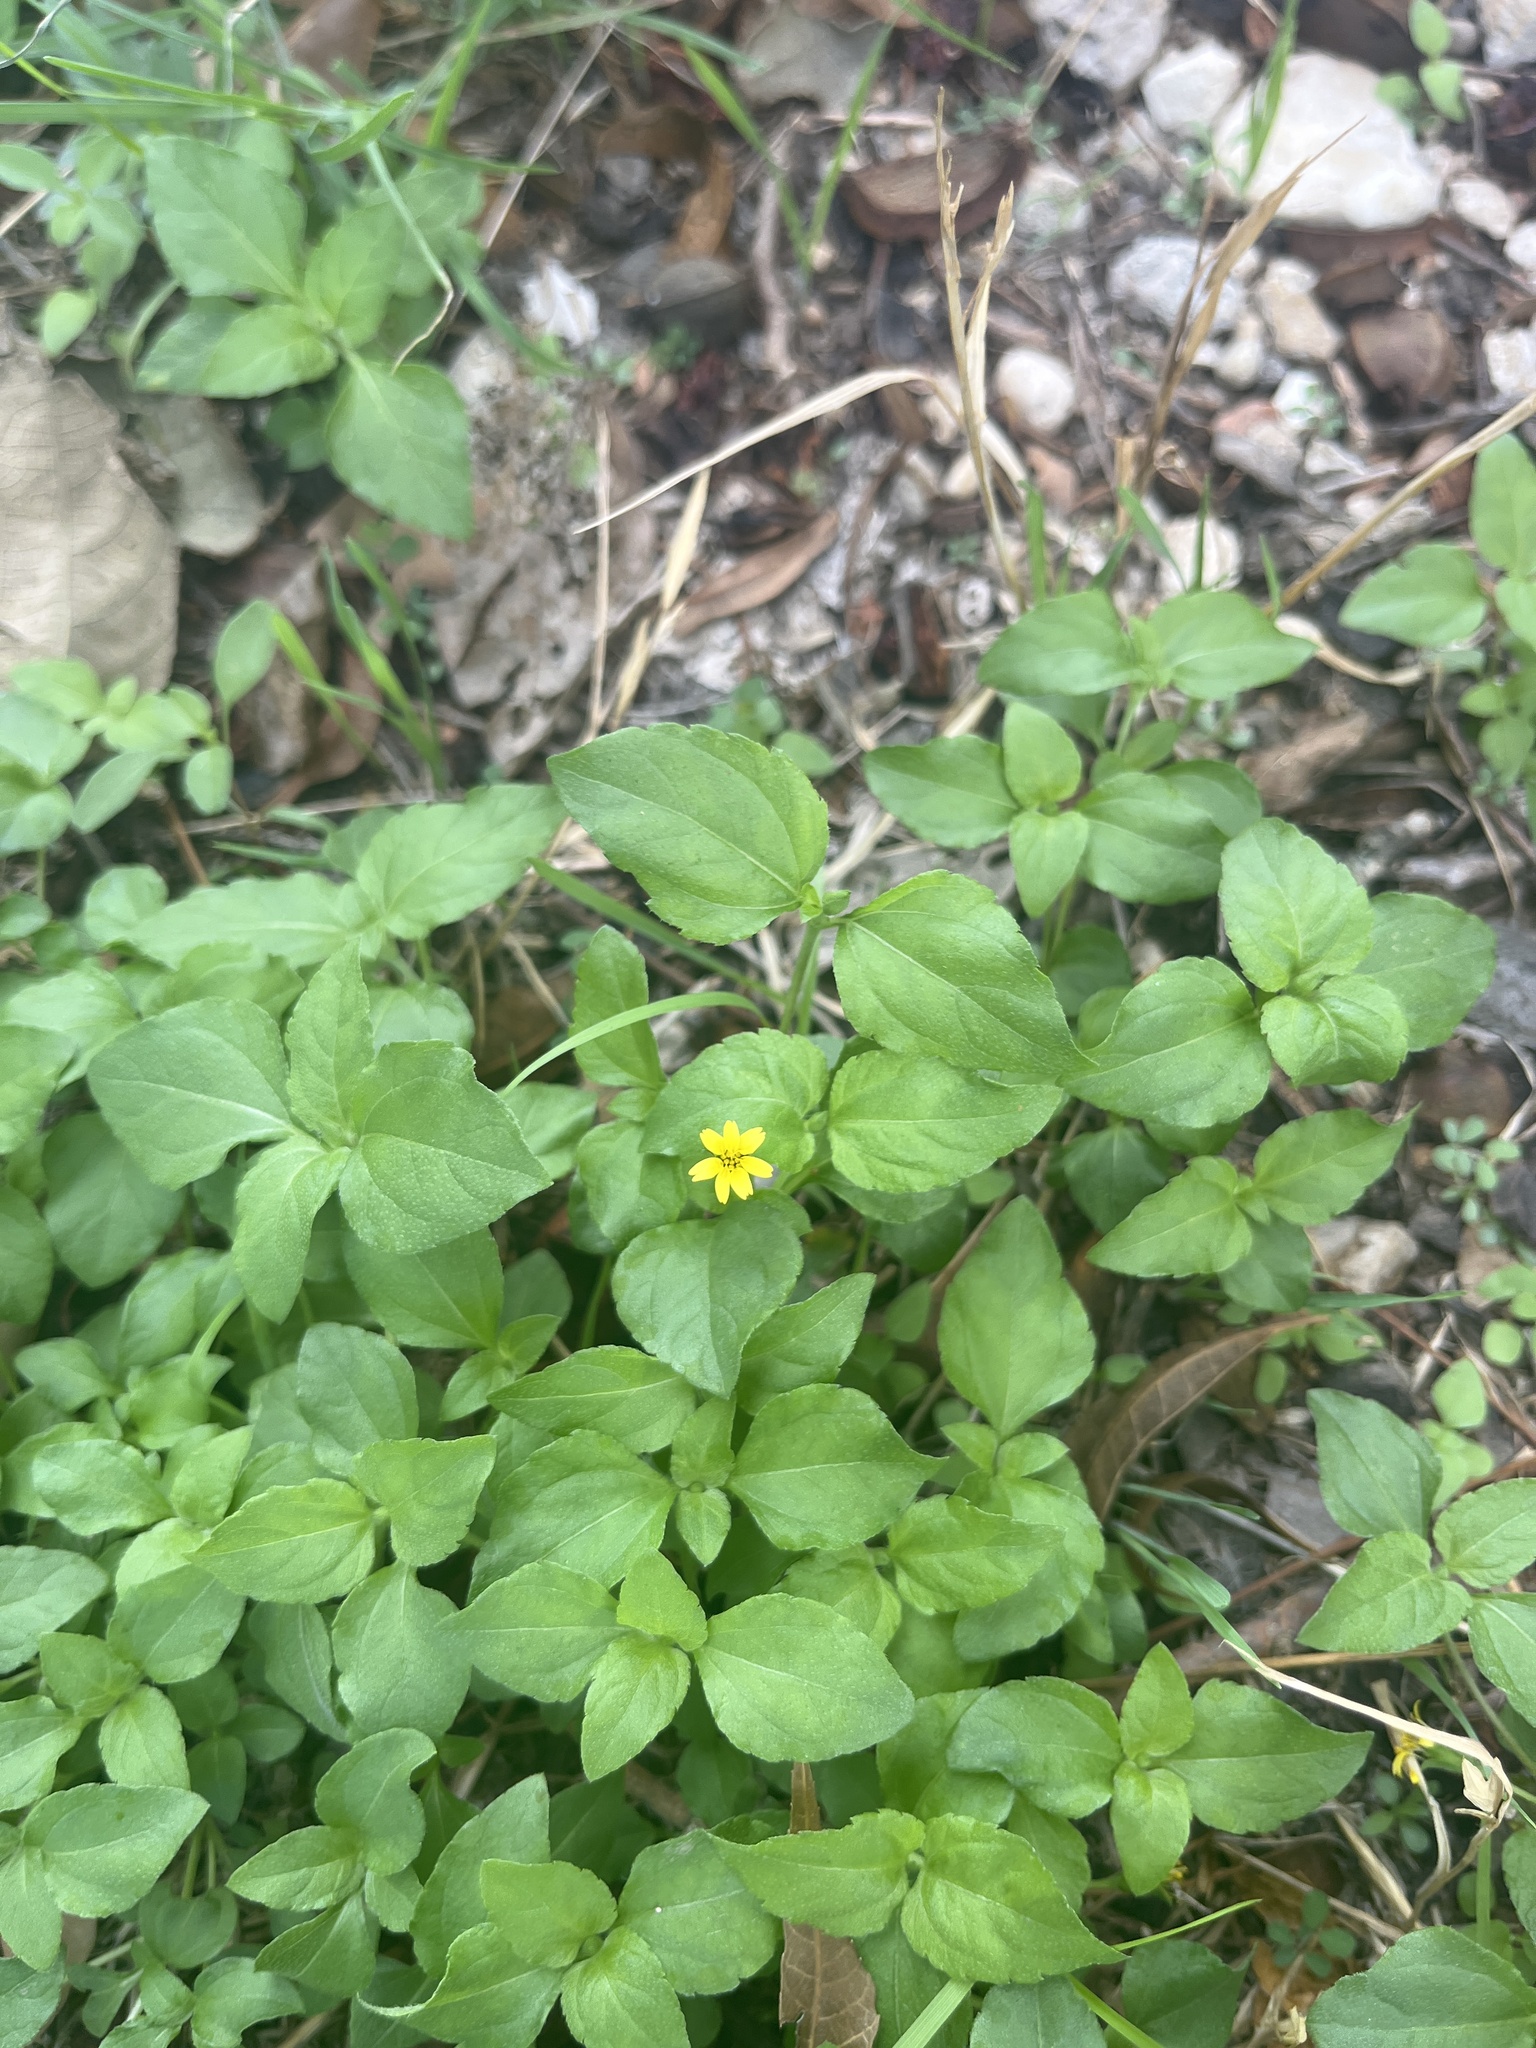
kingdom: Plantae
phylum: Tracheophyta
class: Magnoliopsida
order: Asterales
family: Asteraceae
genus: Calyptocarpus
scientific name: Calyptocarpus vialis
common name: Straggler daisy
